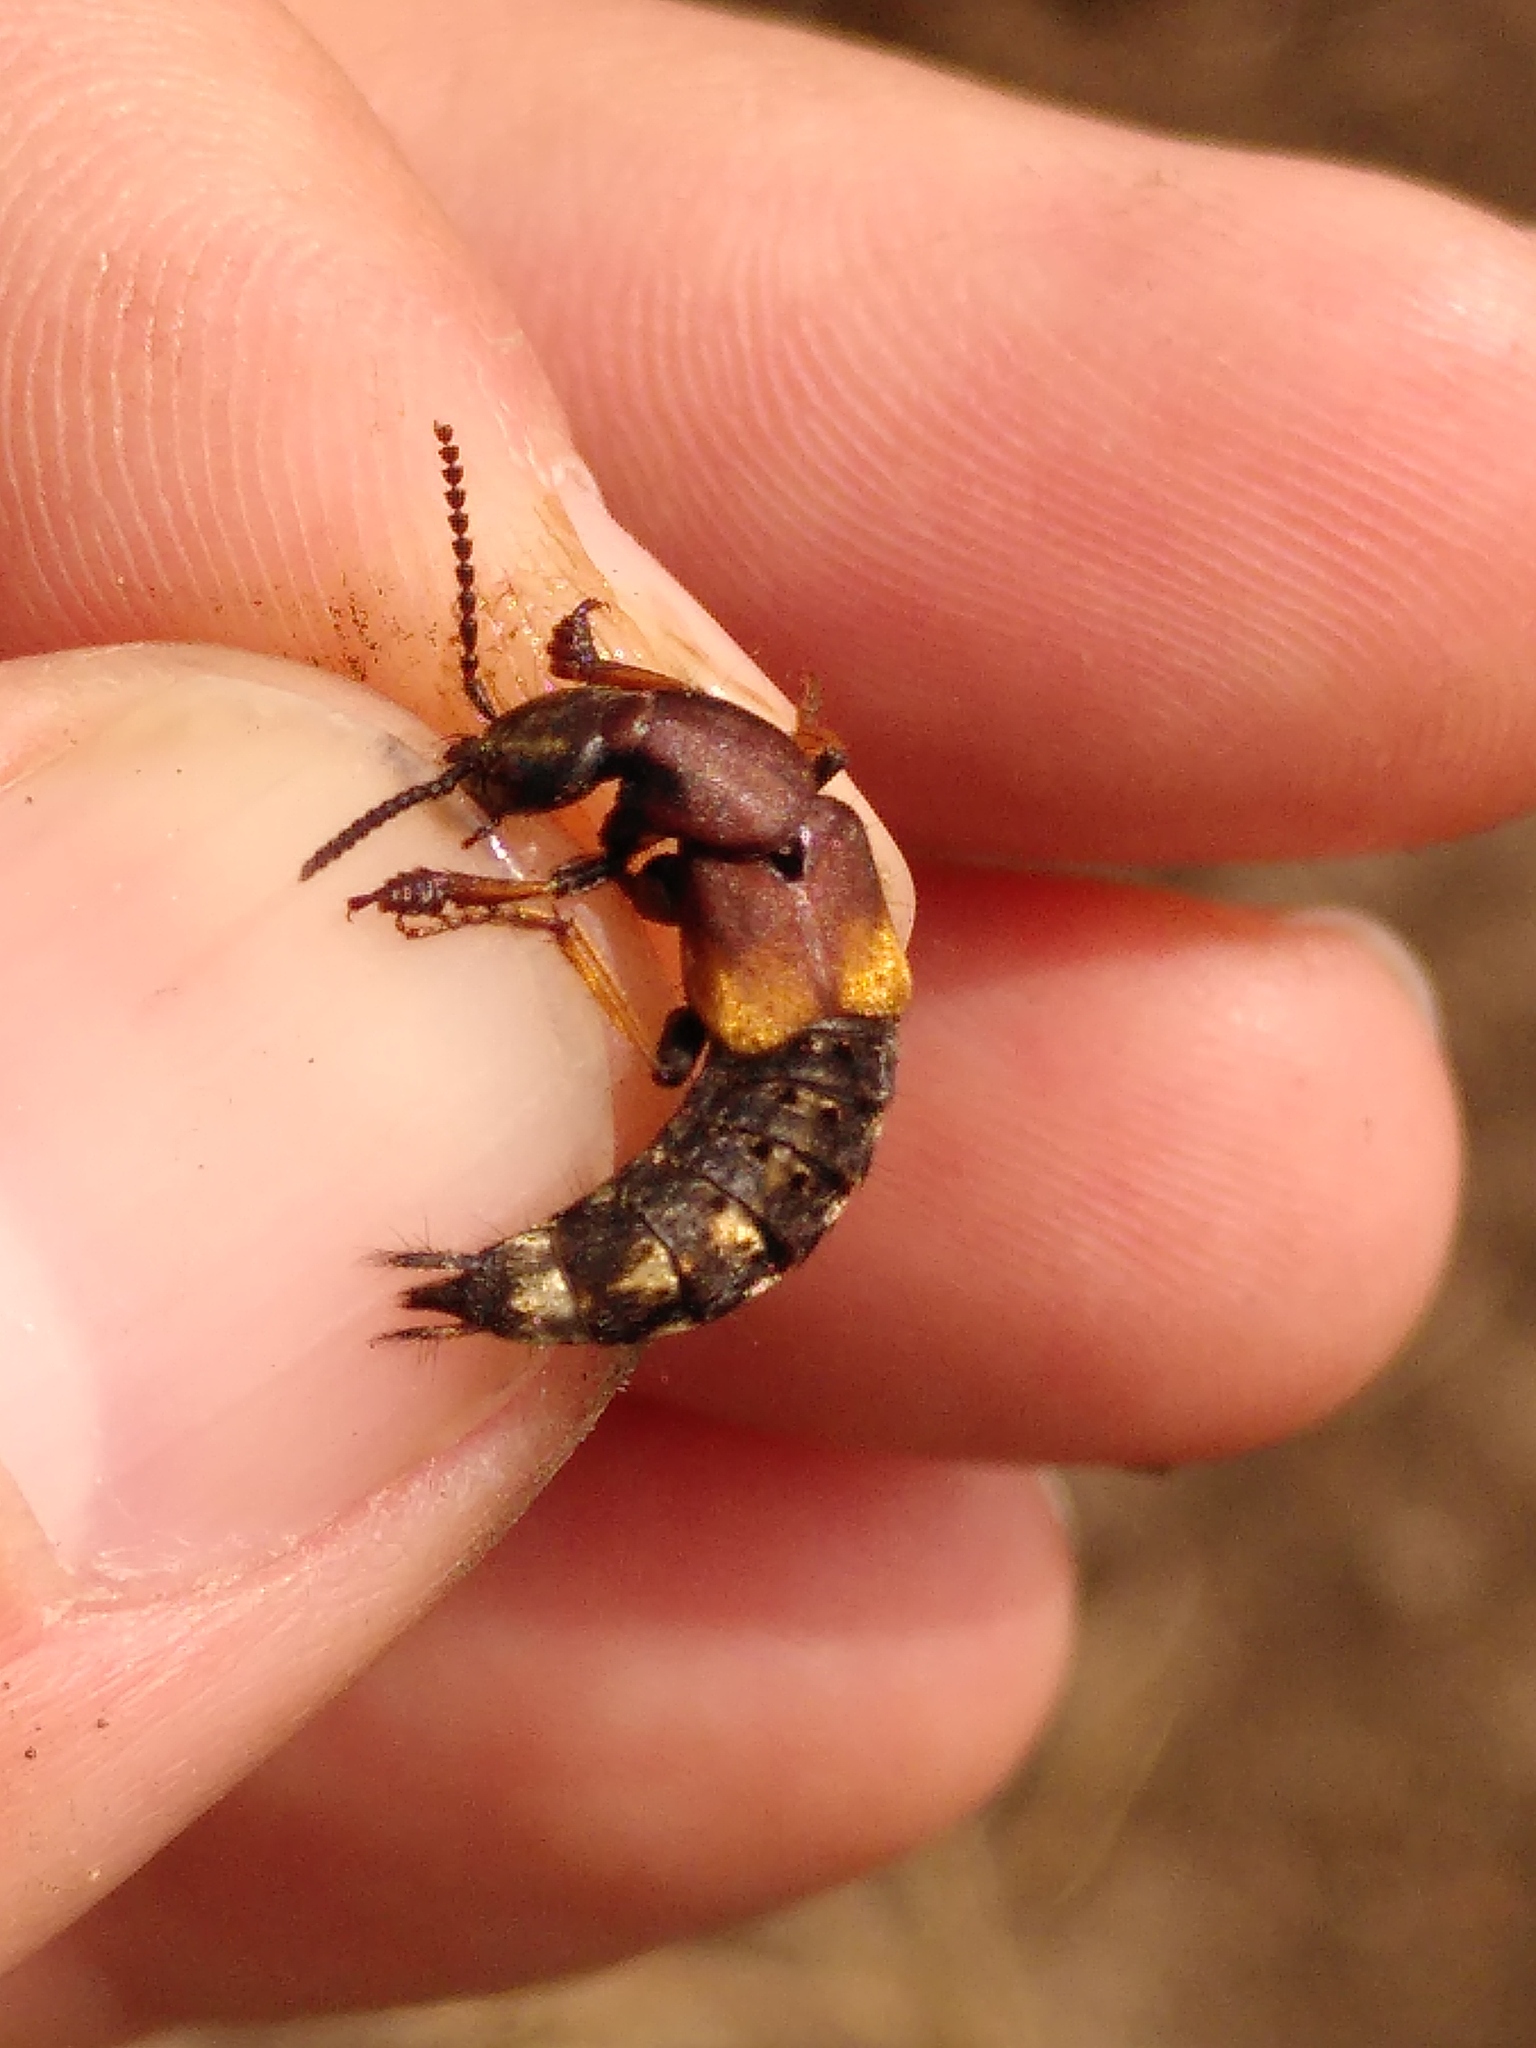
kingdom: Animalia
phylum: Arthropoda
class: Insecta
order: Coleoptera
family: Staphylinidae
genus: Dinothenarus
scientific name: Dinothenarus fossor
